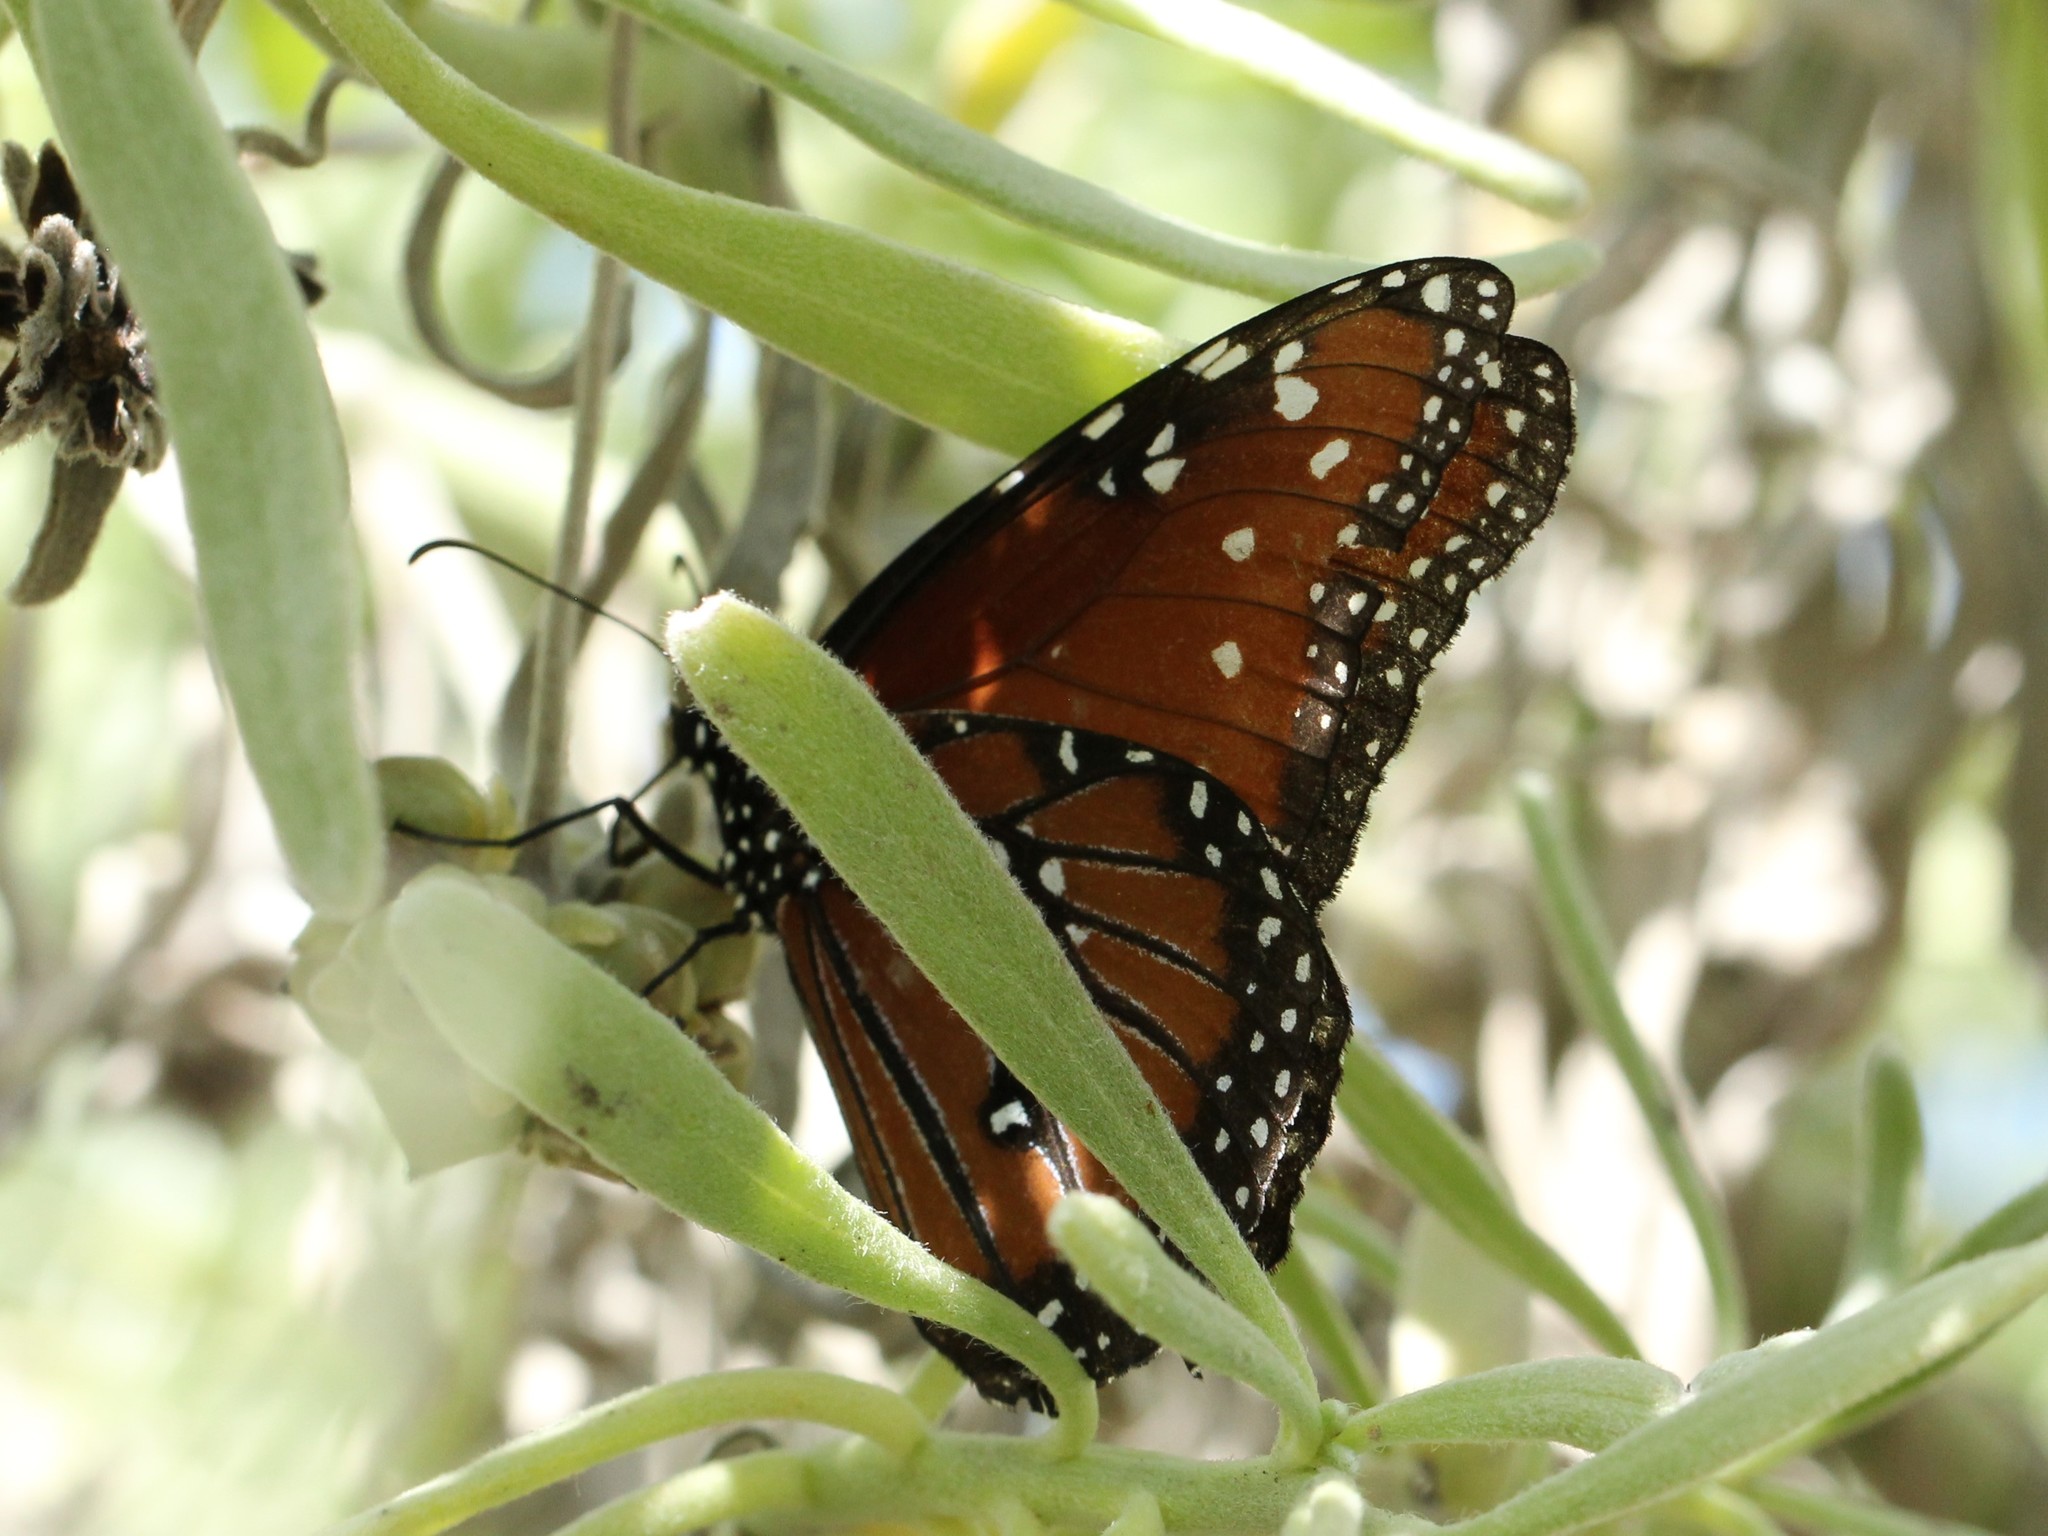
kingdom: Animalia
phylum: Arthropoda
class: Insecta
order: Lepidoptera
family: Nymphalidae
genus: Danaus
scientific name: Danaus gilippus
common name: Queen
